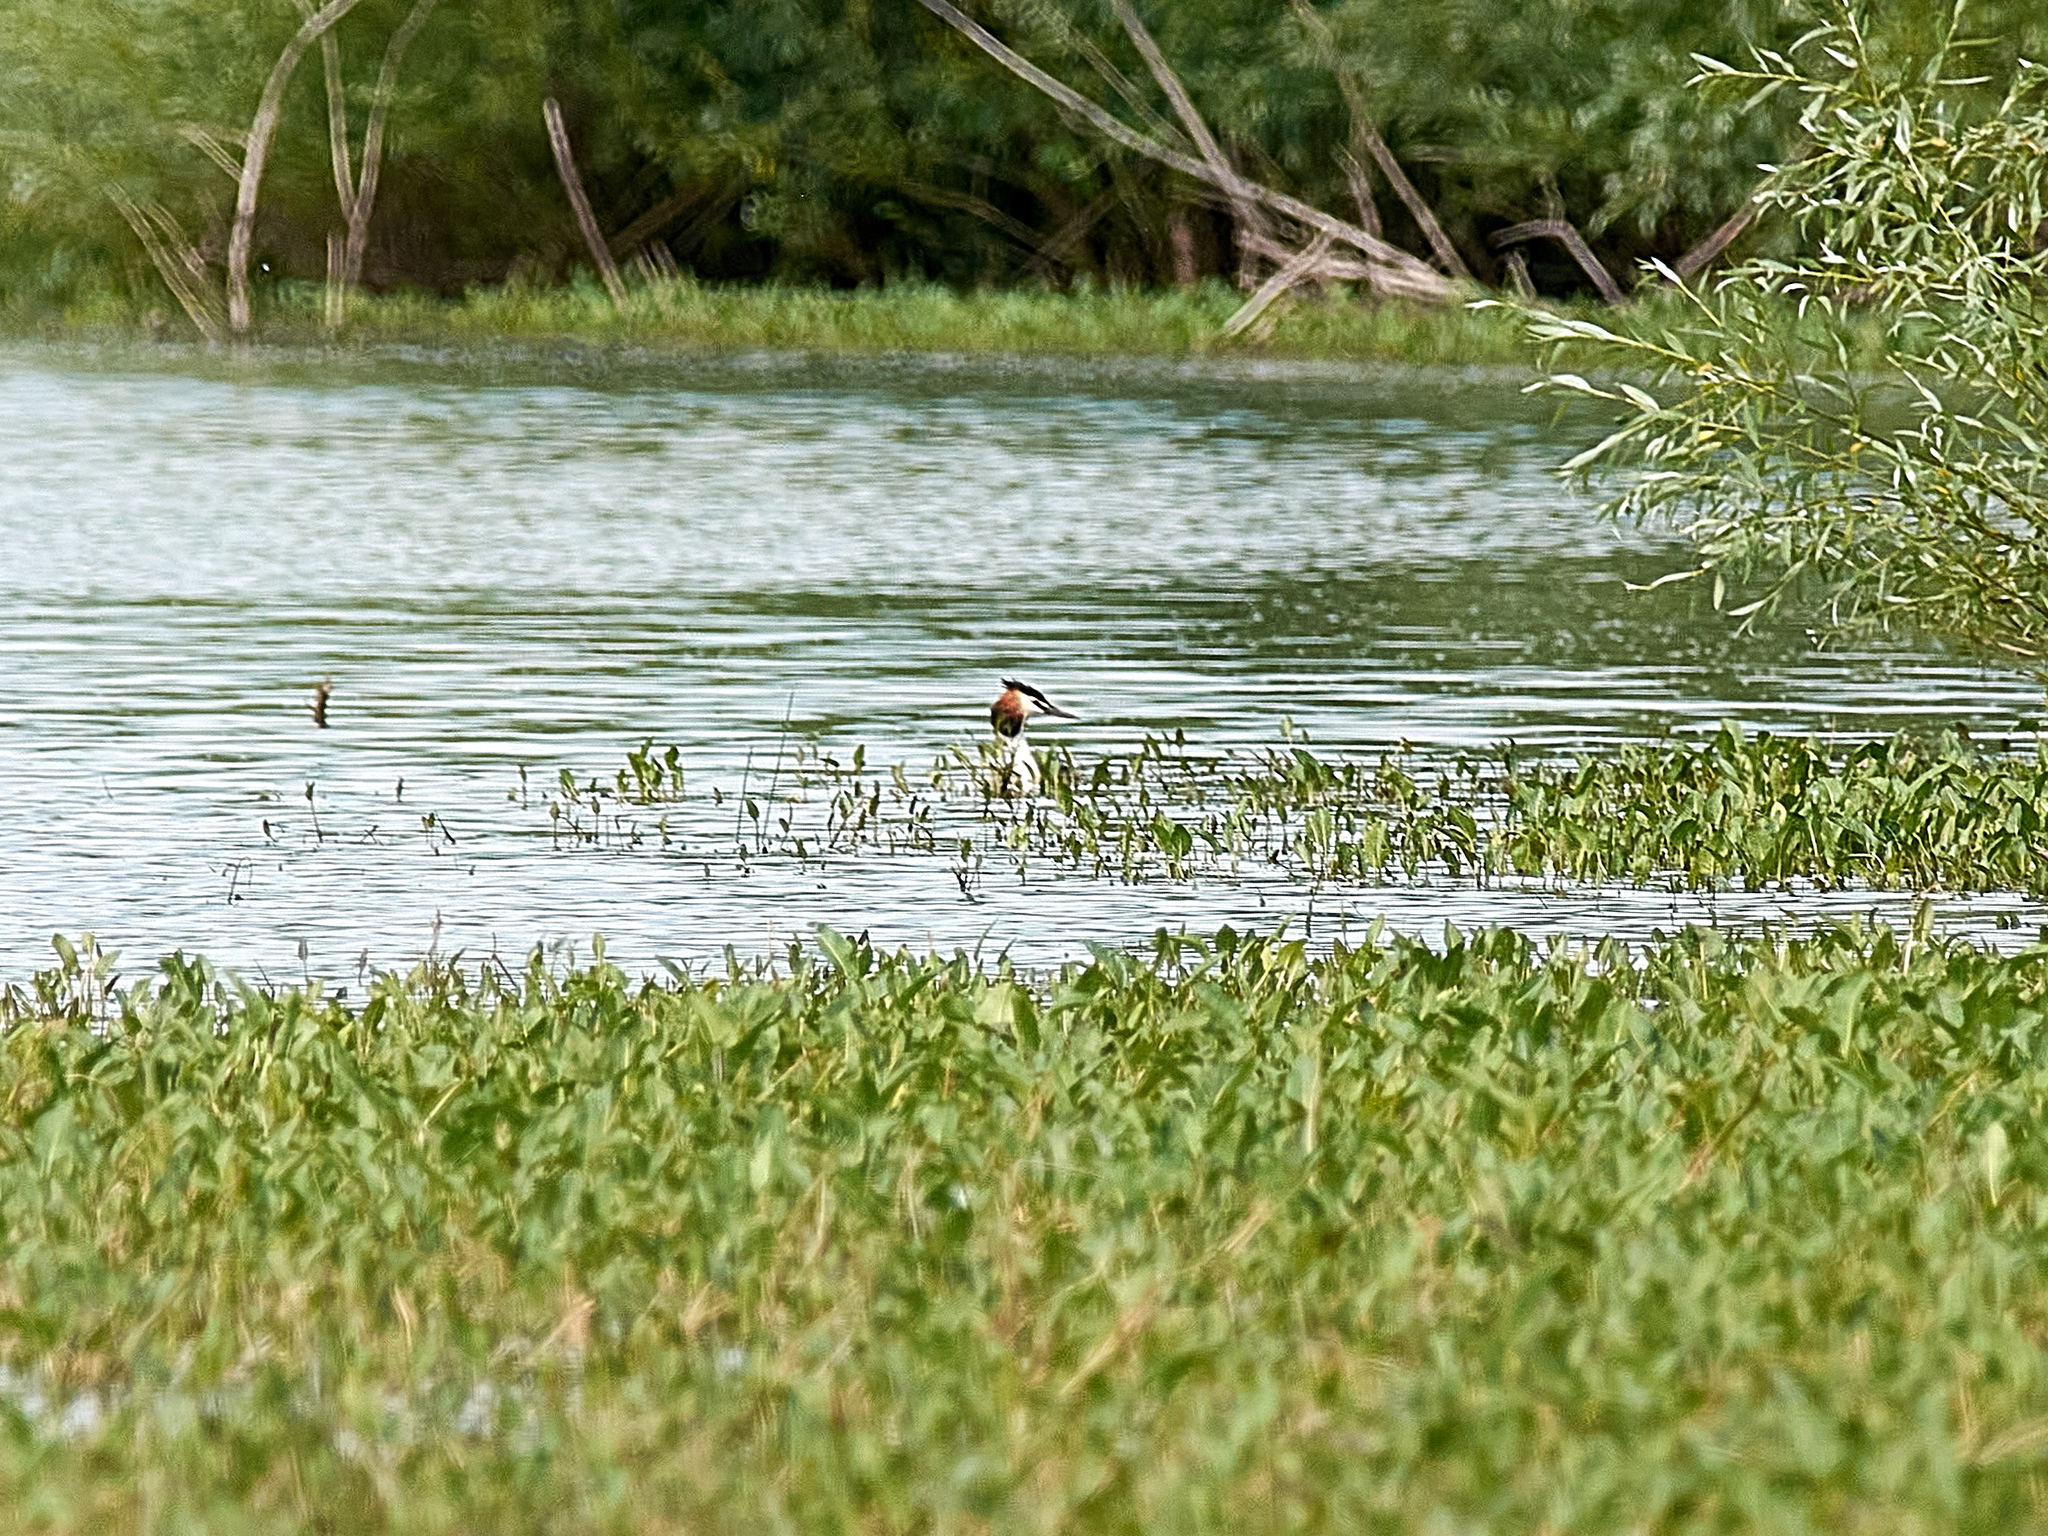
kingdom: Animalia
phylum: Chordata
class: Aves
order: Podicipediformes
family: Podicipedidae
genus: Podiceps
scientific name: Podiceps cristatus
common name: Great crested grebe
